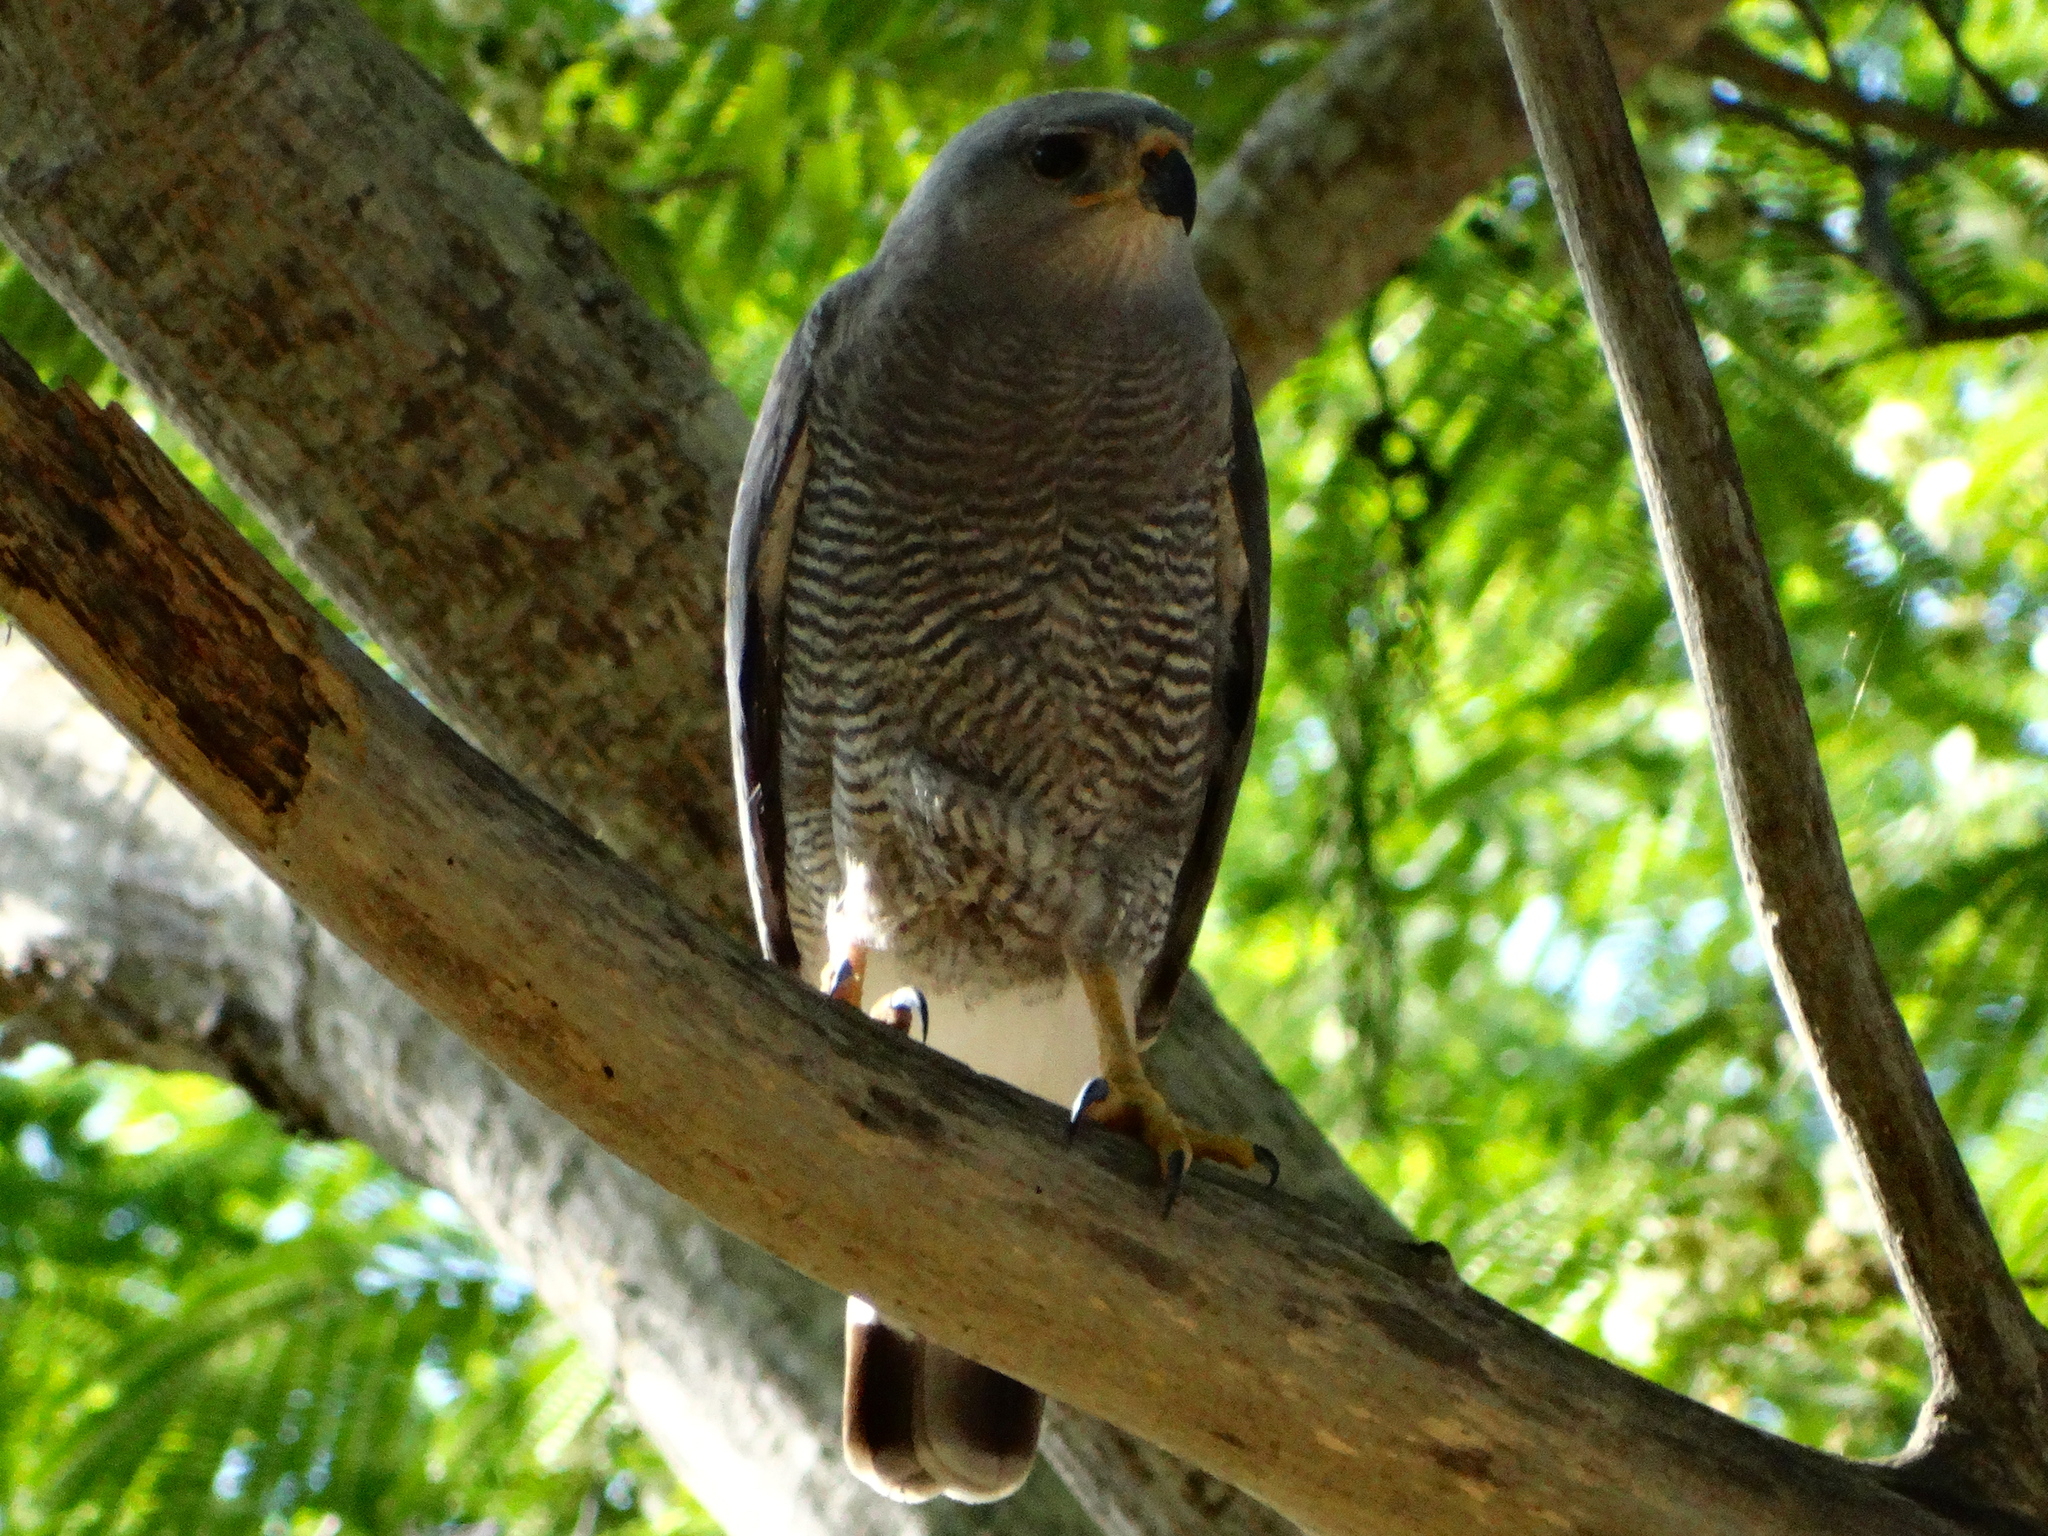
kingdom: Animalia
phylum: Chordata
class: Aves
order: Accipitriformes
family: Accipitridae
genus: Buteo
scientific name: Buteo nitidus
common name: Grey-lined hawk
